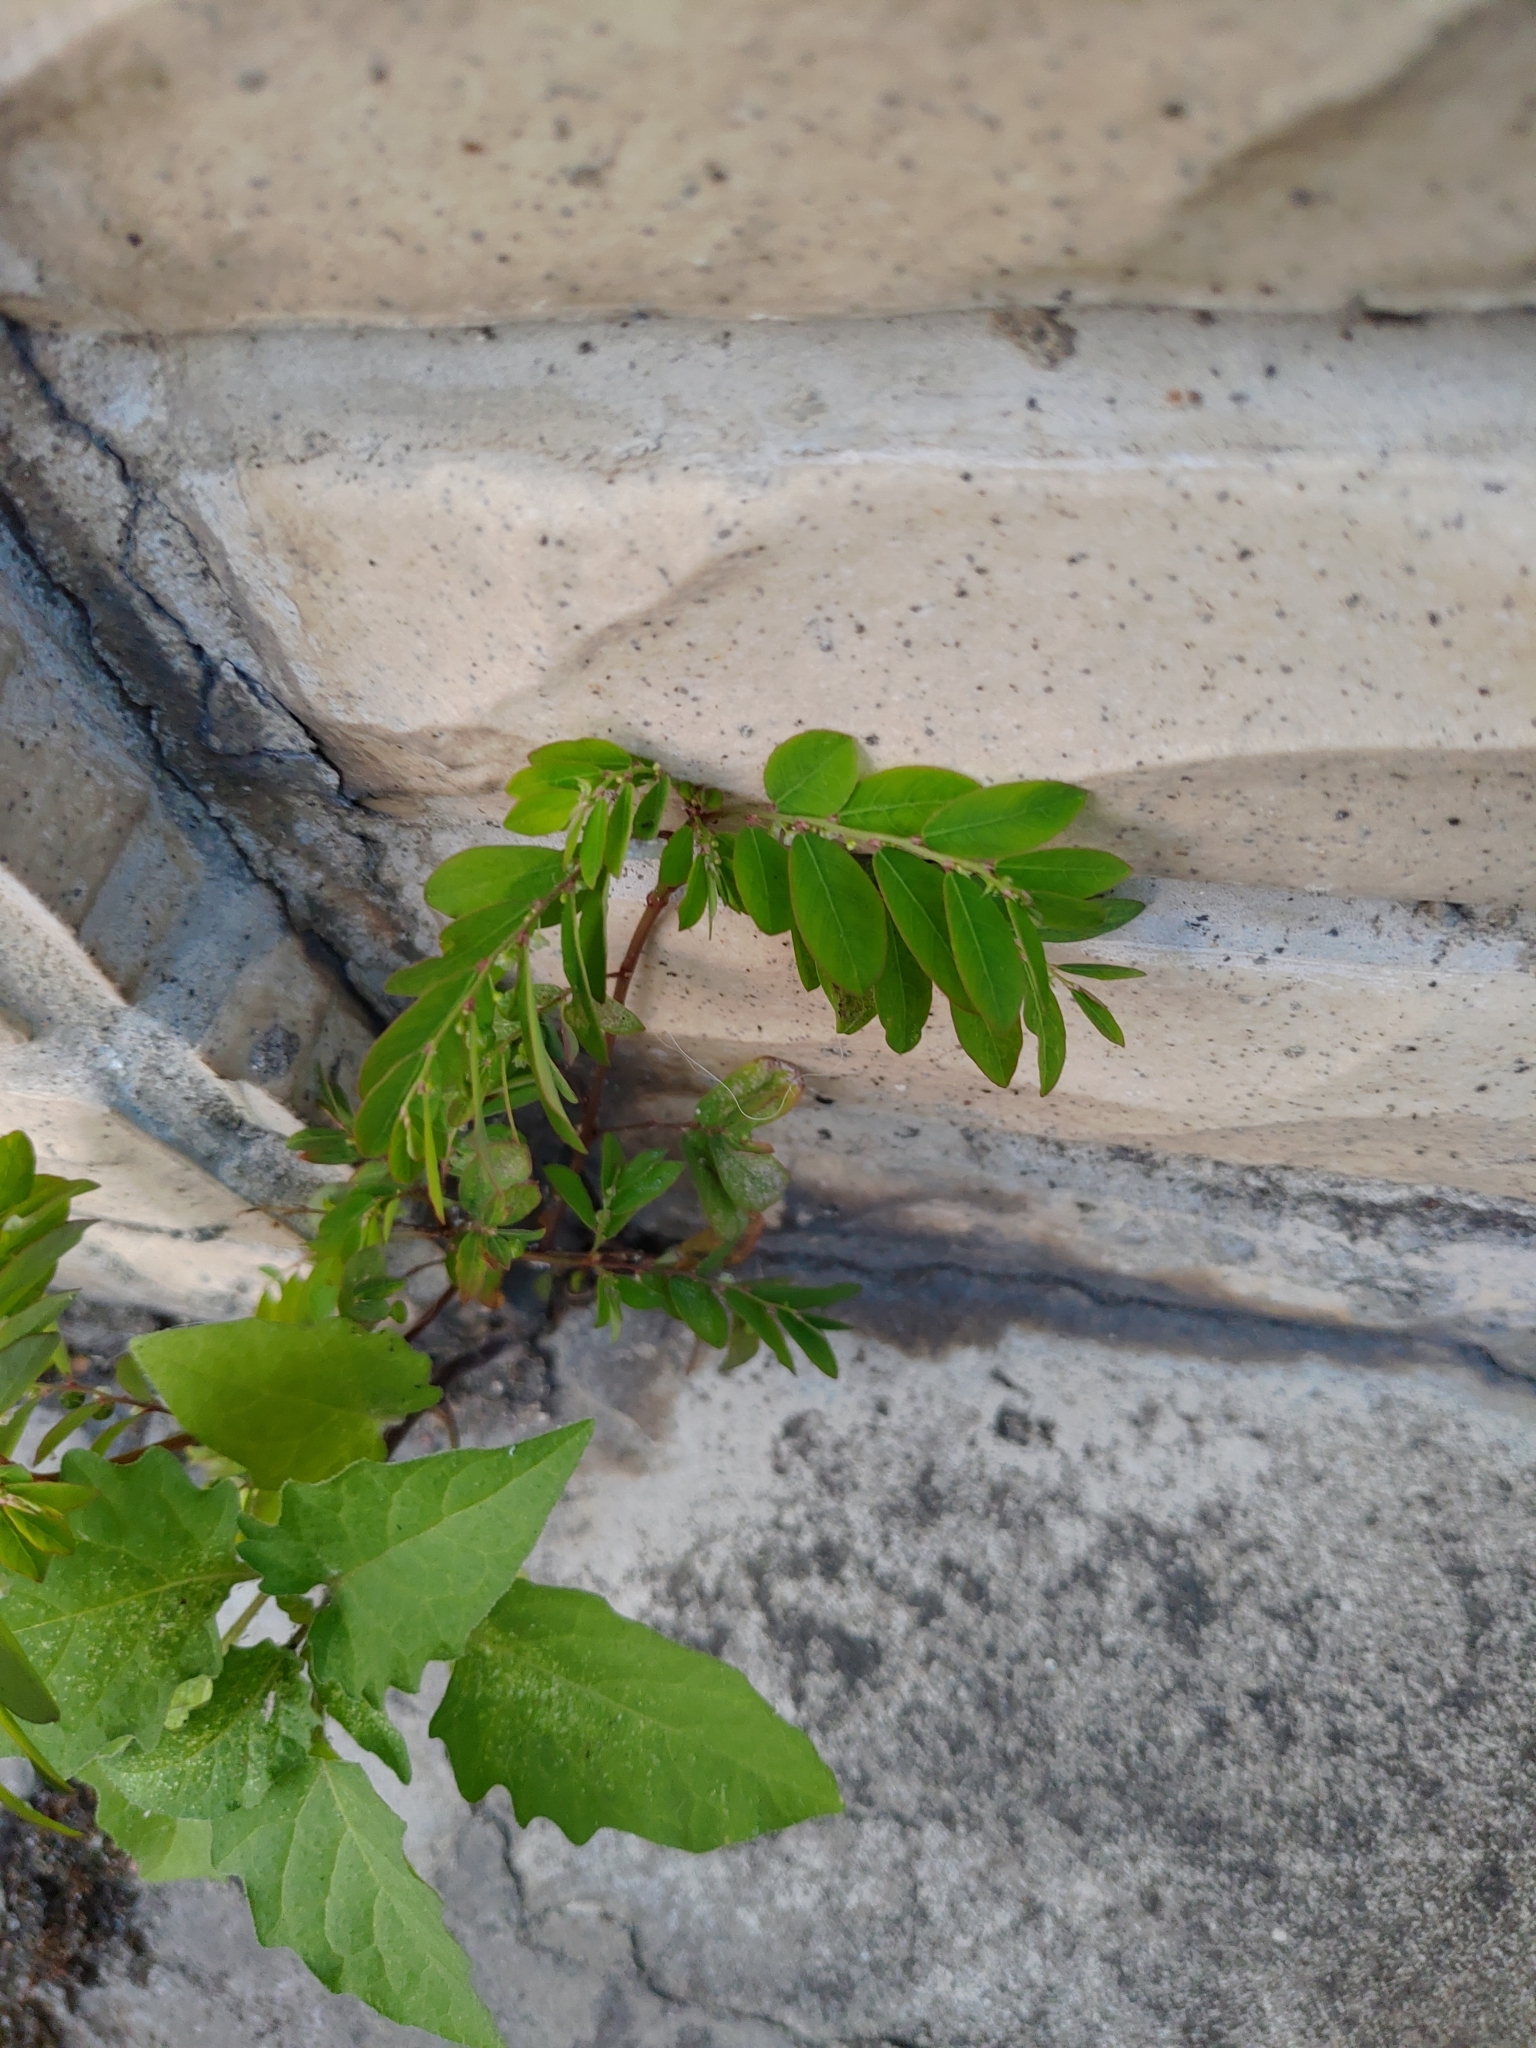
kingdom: Plantae
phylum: Tracheophyta
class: Magnoliopsida
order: Malpighiales
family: Phyllanthaceae
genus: Phyllanthus
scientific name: Phyllanthus tenellus
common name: Mascarene island leaf-flower
